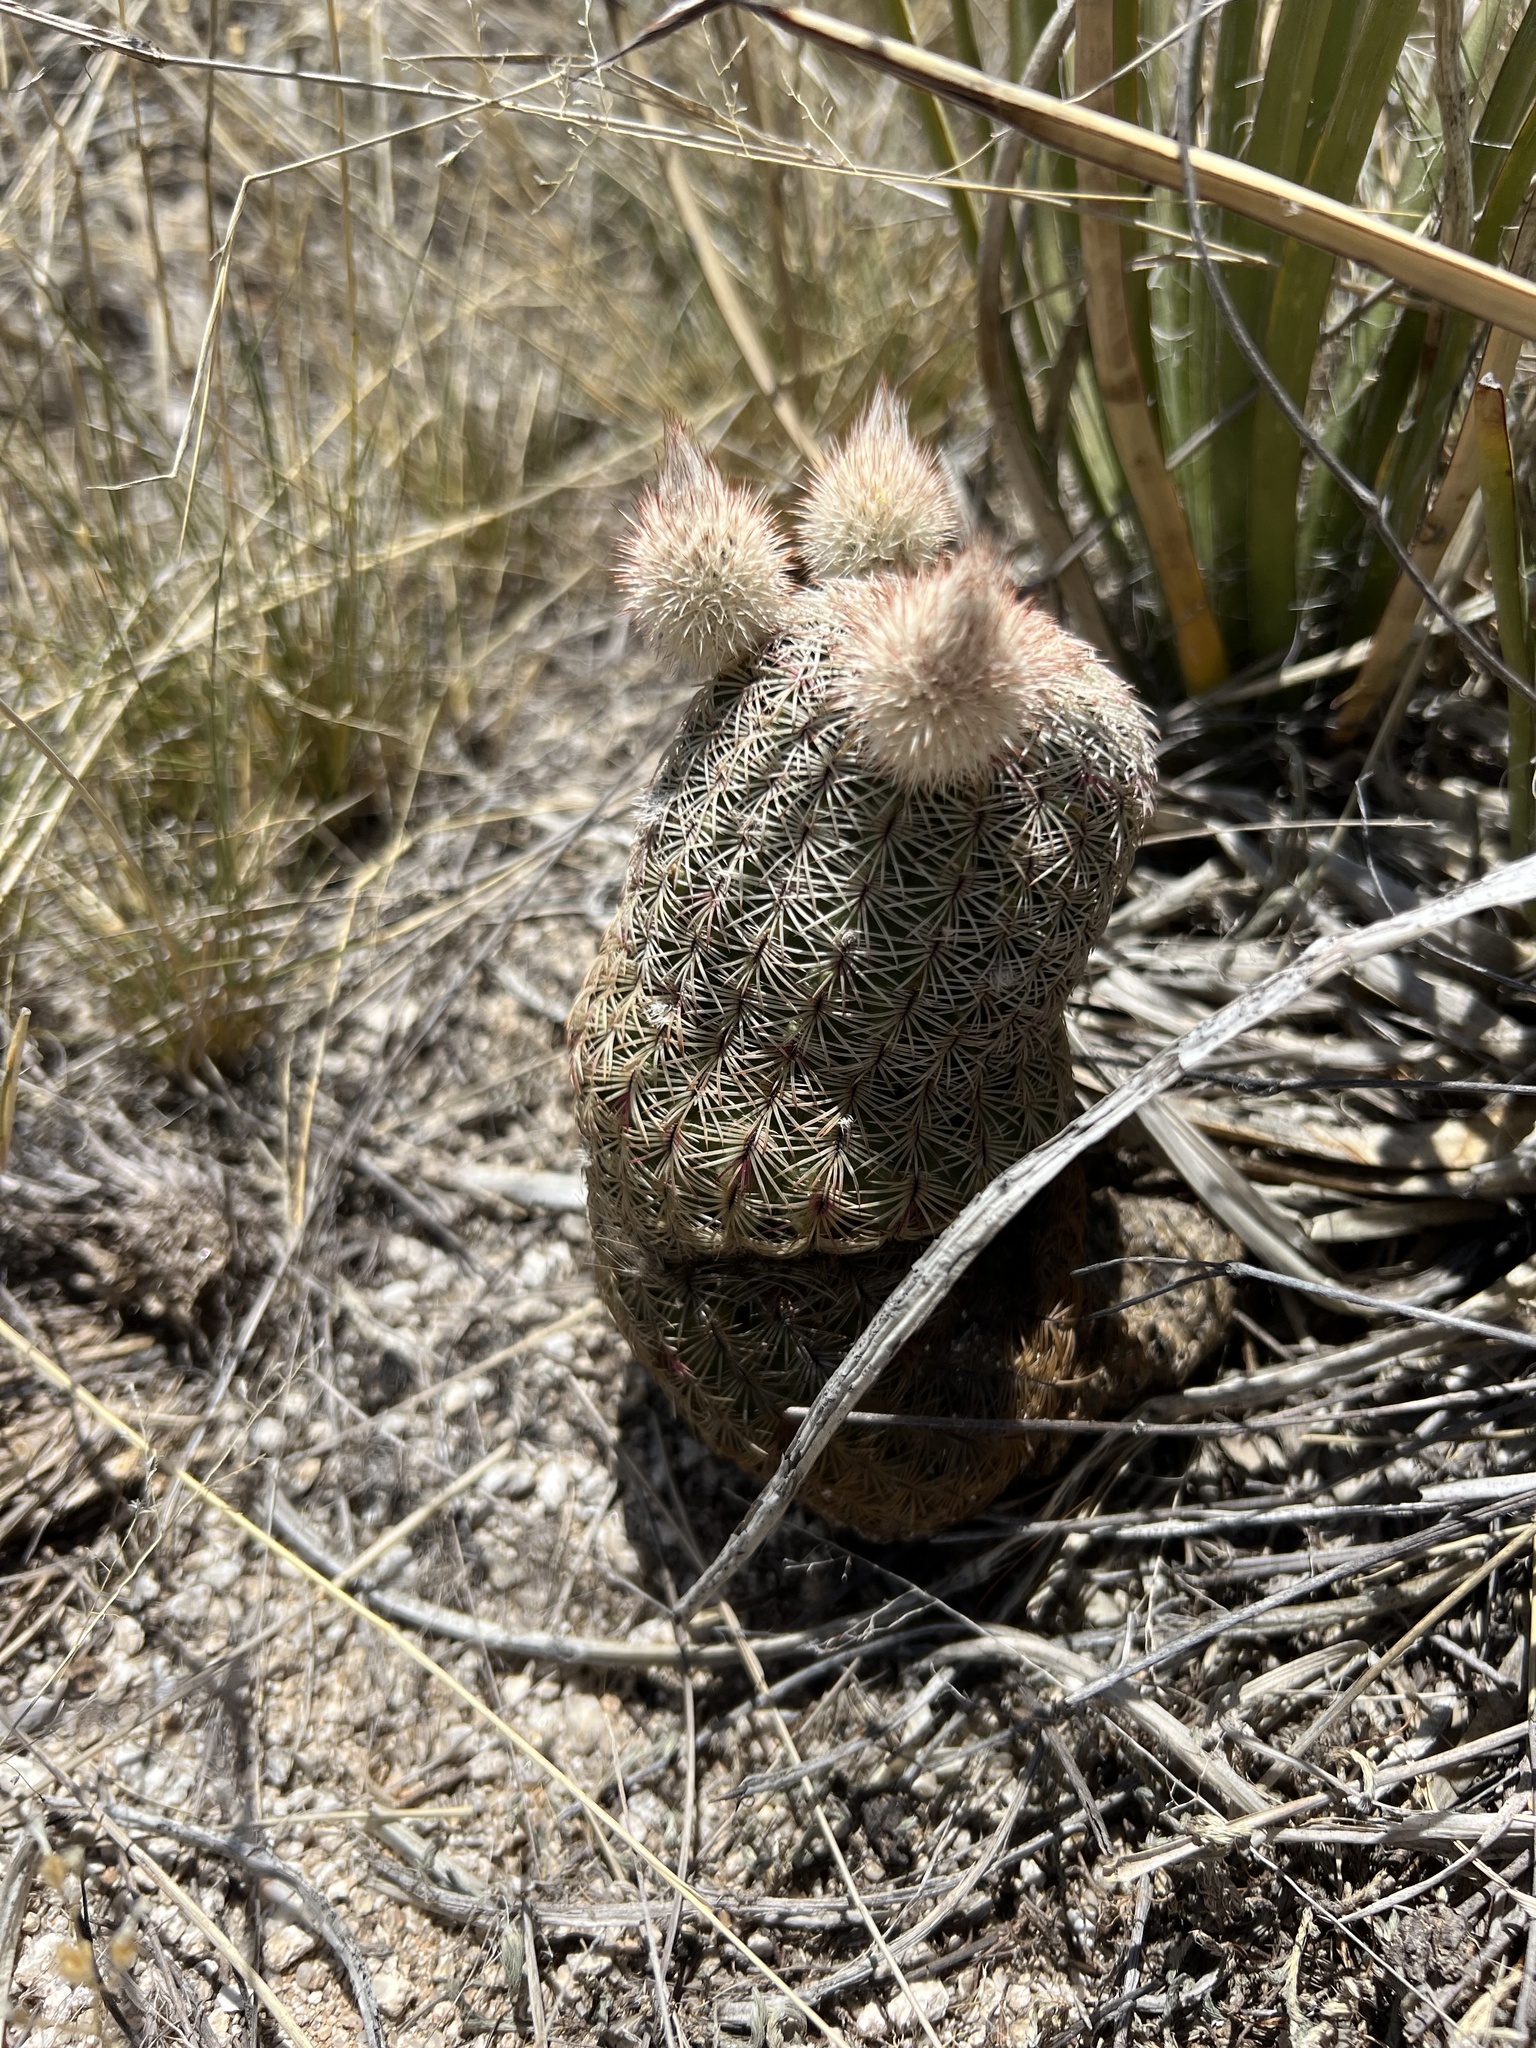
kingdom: Plantae
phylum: Tracheophyta
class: Magnoliopsida
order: Caryophyllales
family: Cactaceae
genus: Echinocereus
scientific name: Echinocereus rigidissimus
